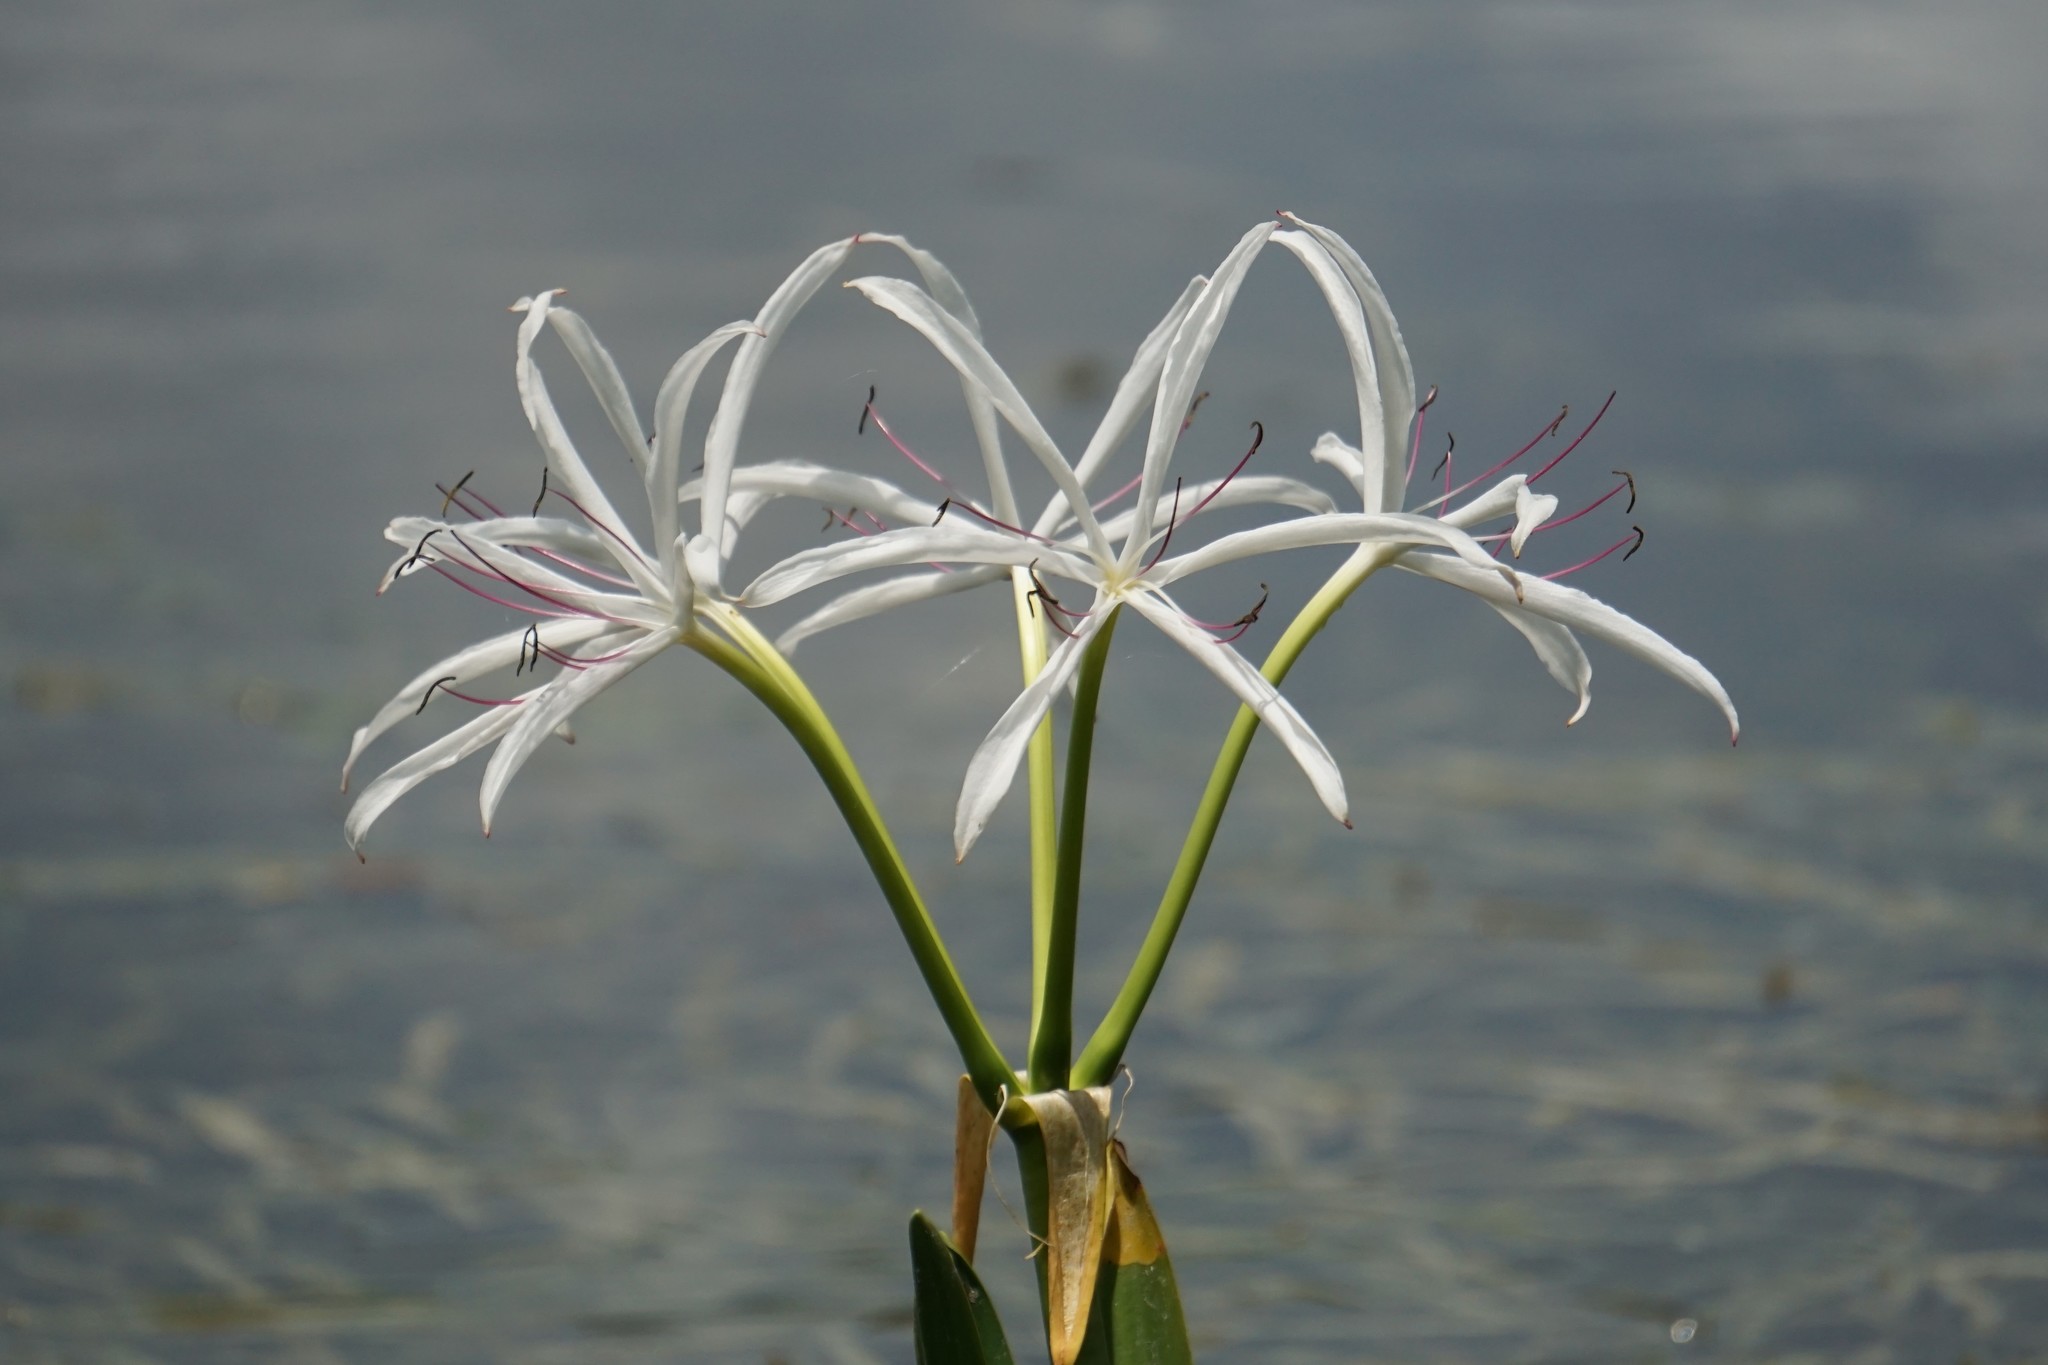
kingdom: Plantae
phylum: Tracheophyta
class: Liliopsida
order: Asparagales
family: Amaryllidaceae
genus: Crinum
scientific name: Crinum americanum
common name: Florida swamp-lily
